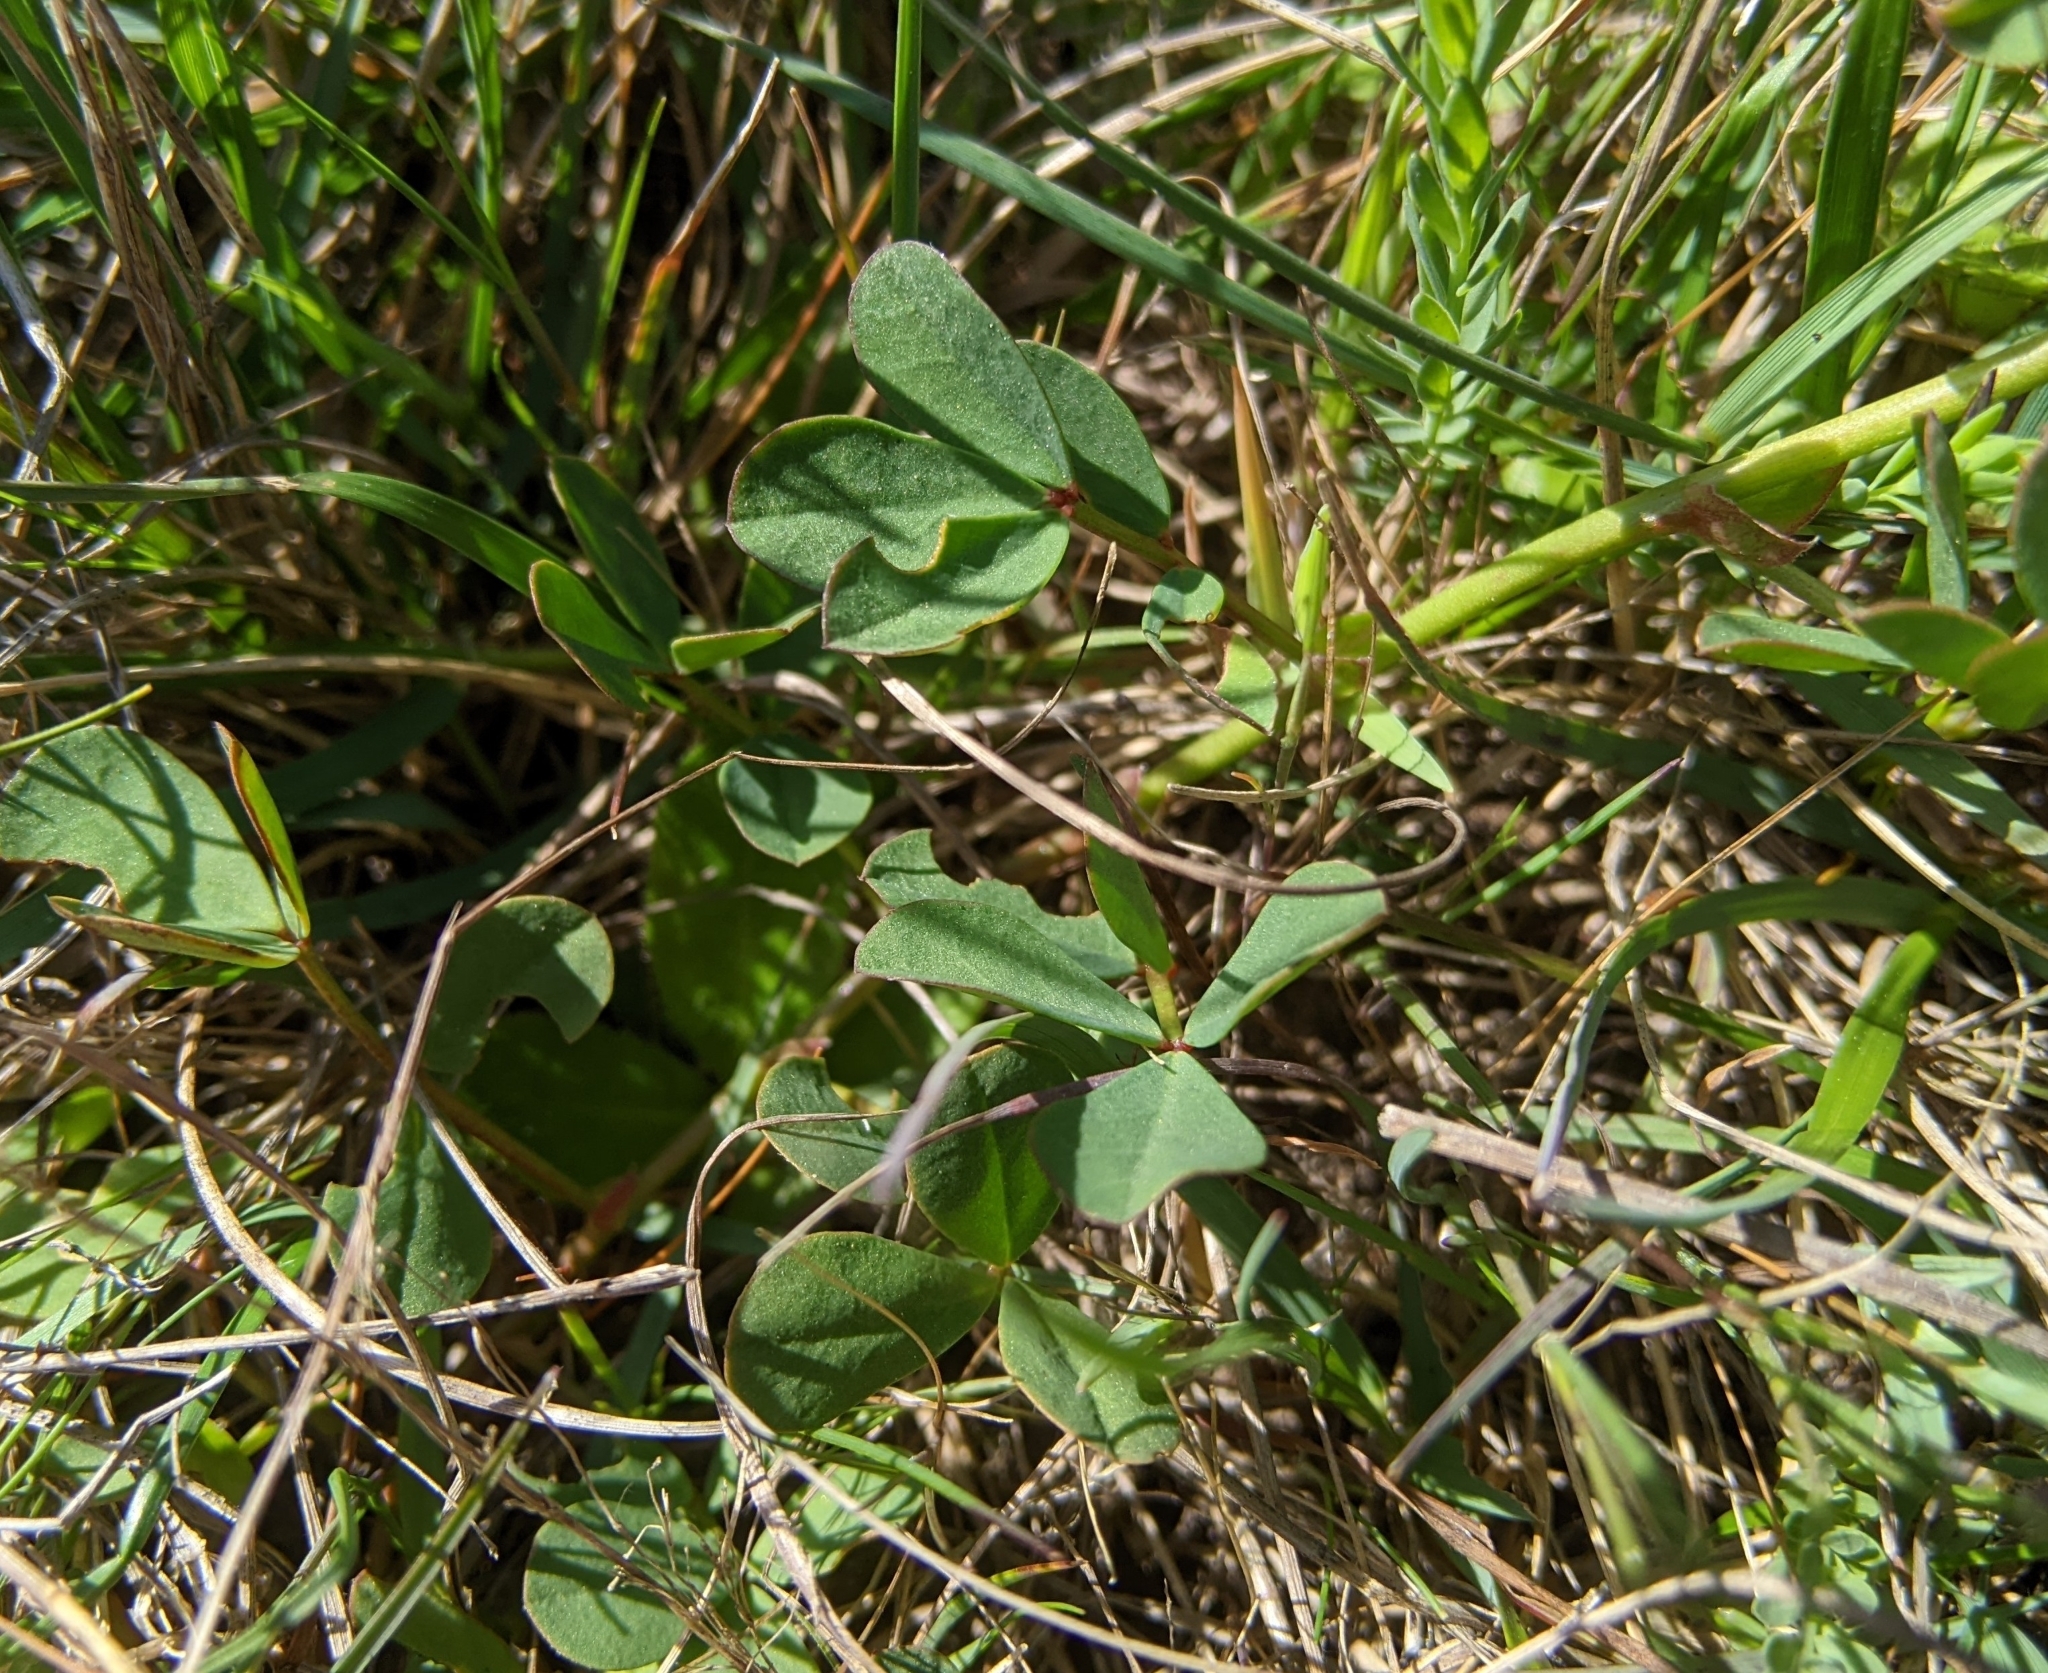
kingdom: Plantae
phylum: Tracheophyta
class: Magnoliopsida
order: Fabales
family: Fabaceae
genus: Hosackia
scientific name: Hosackia gracilis
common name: Seaside bird's-foot lotus
